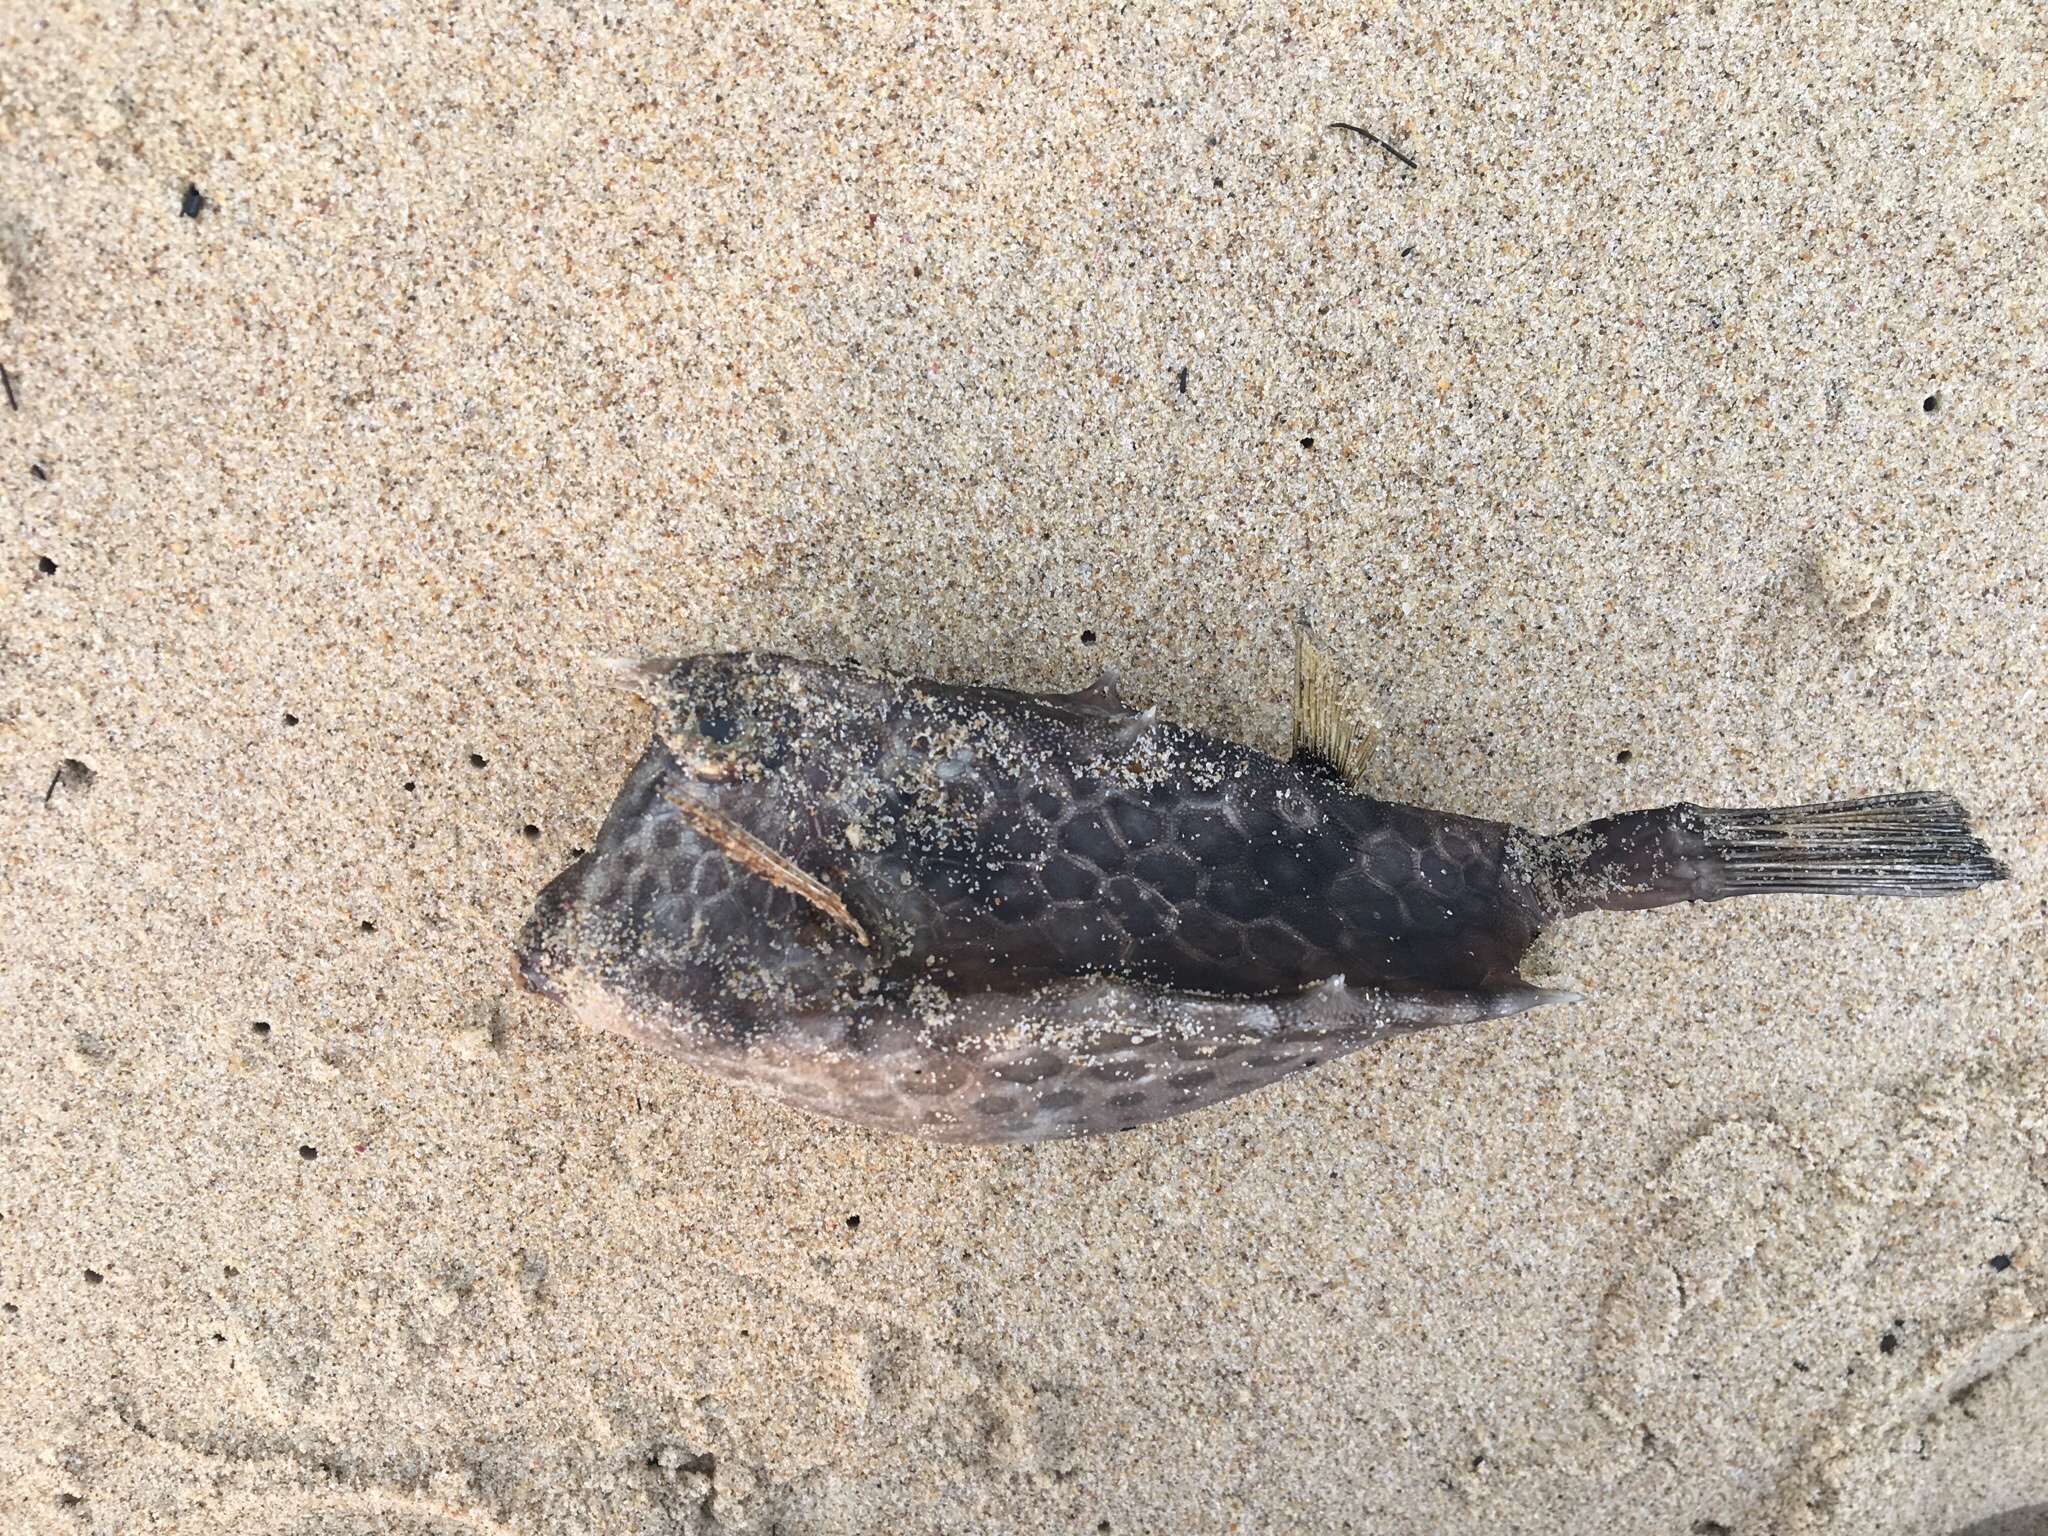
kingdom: Animalia
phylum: Chordata
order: Tetraodontiformes
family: Ostraciidae
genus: Lactoria
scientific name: Lactoria diaphana
